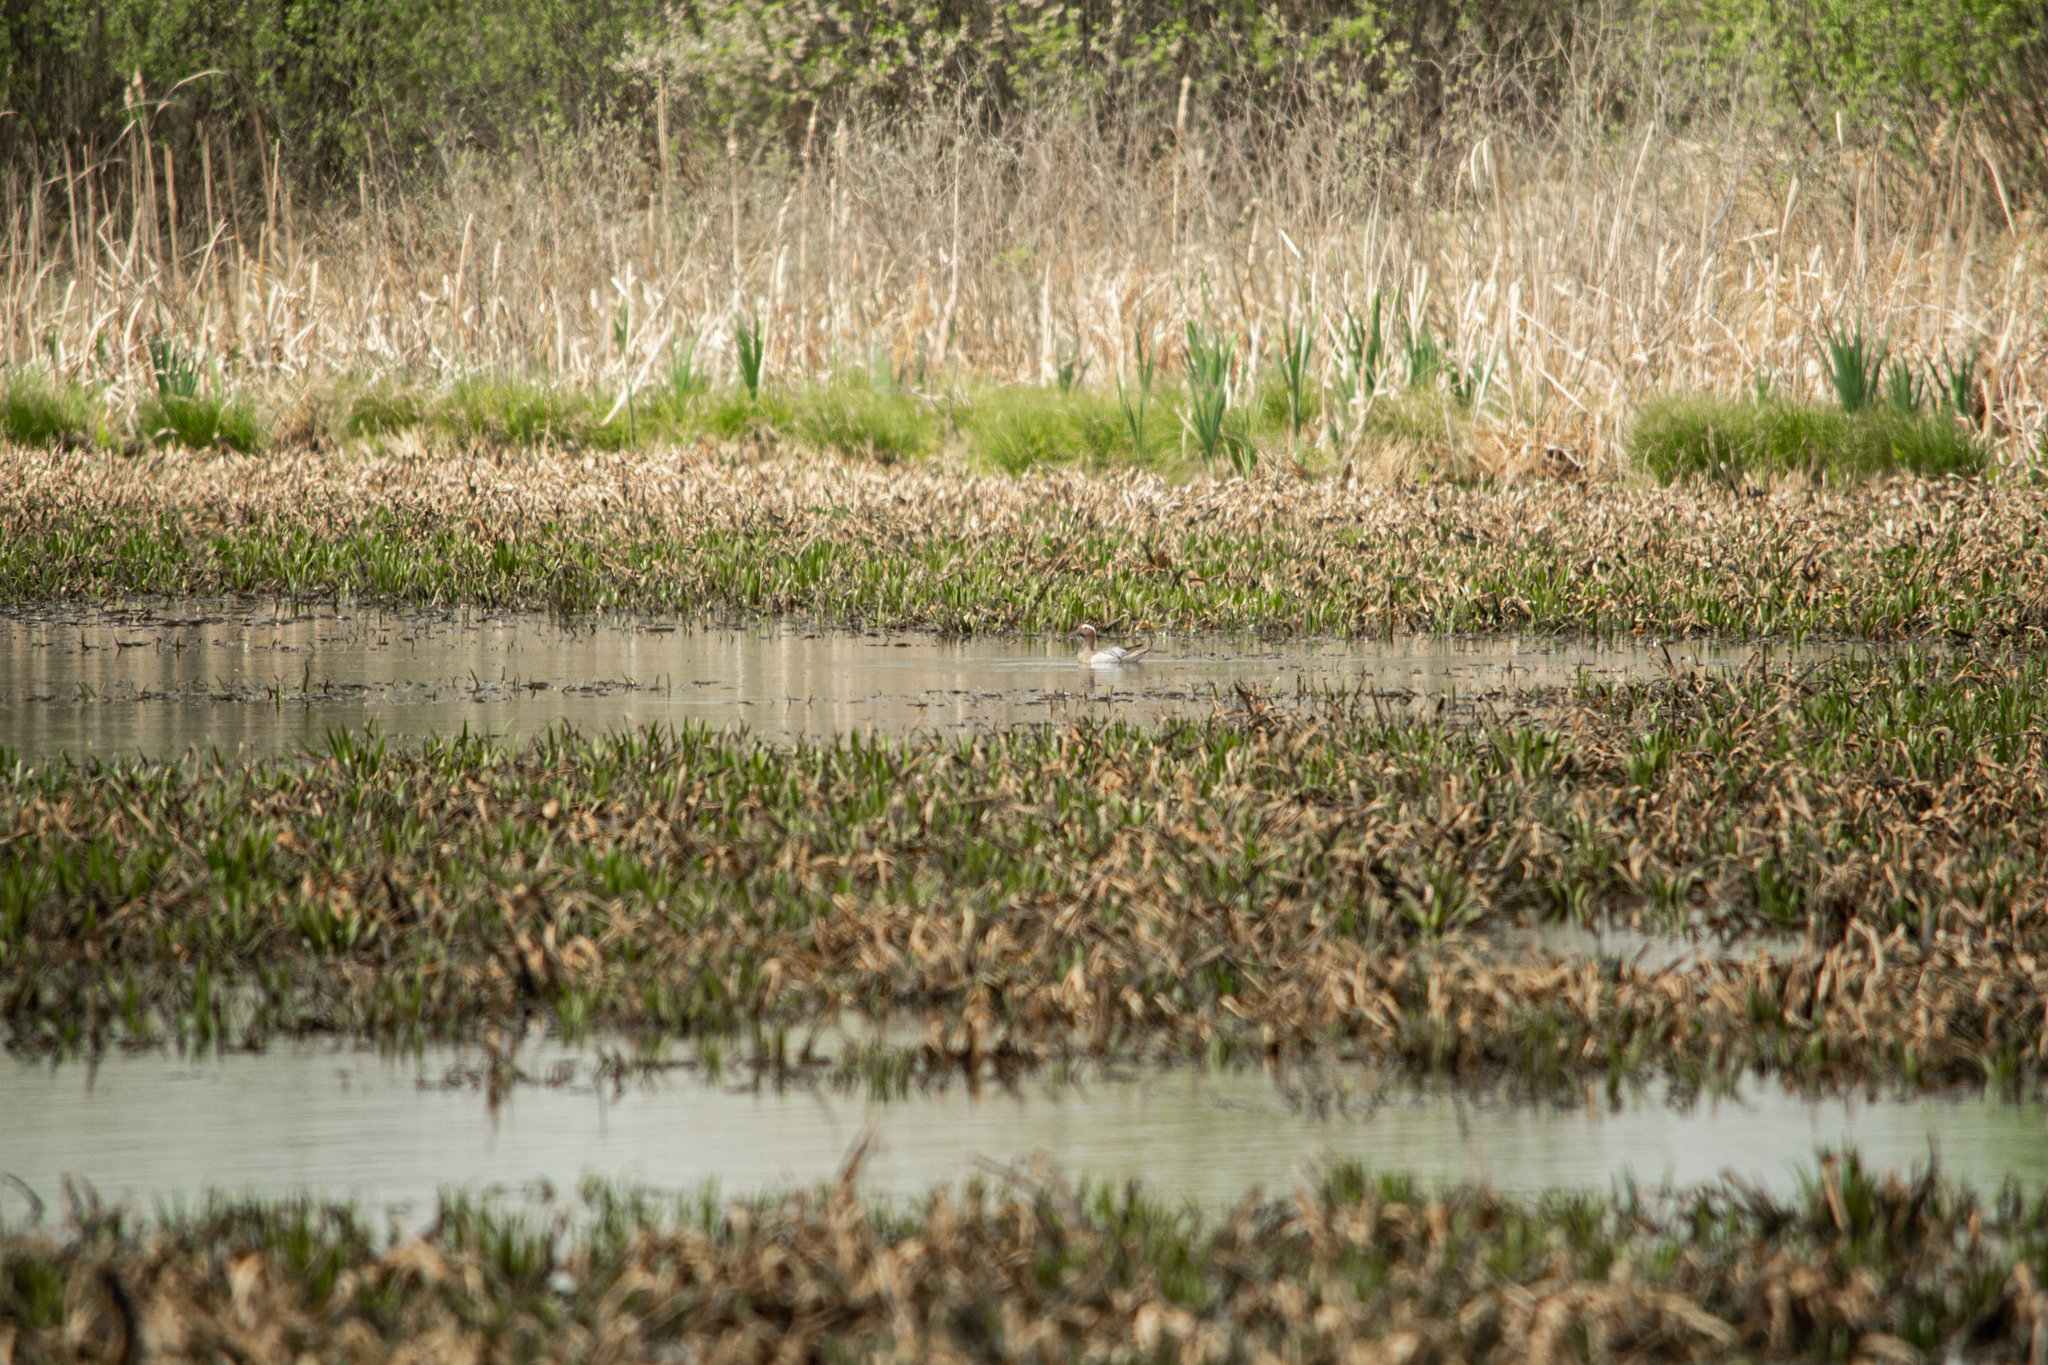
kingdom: Animalia
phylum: Chordata
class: Aves
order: Anseriformes
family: Anatidae
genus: Spatula
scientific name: Spatula querquedula
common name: Garganey
